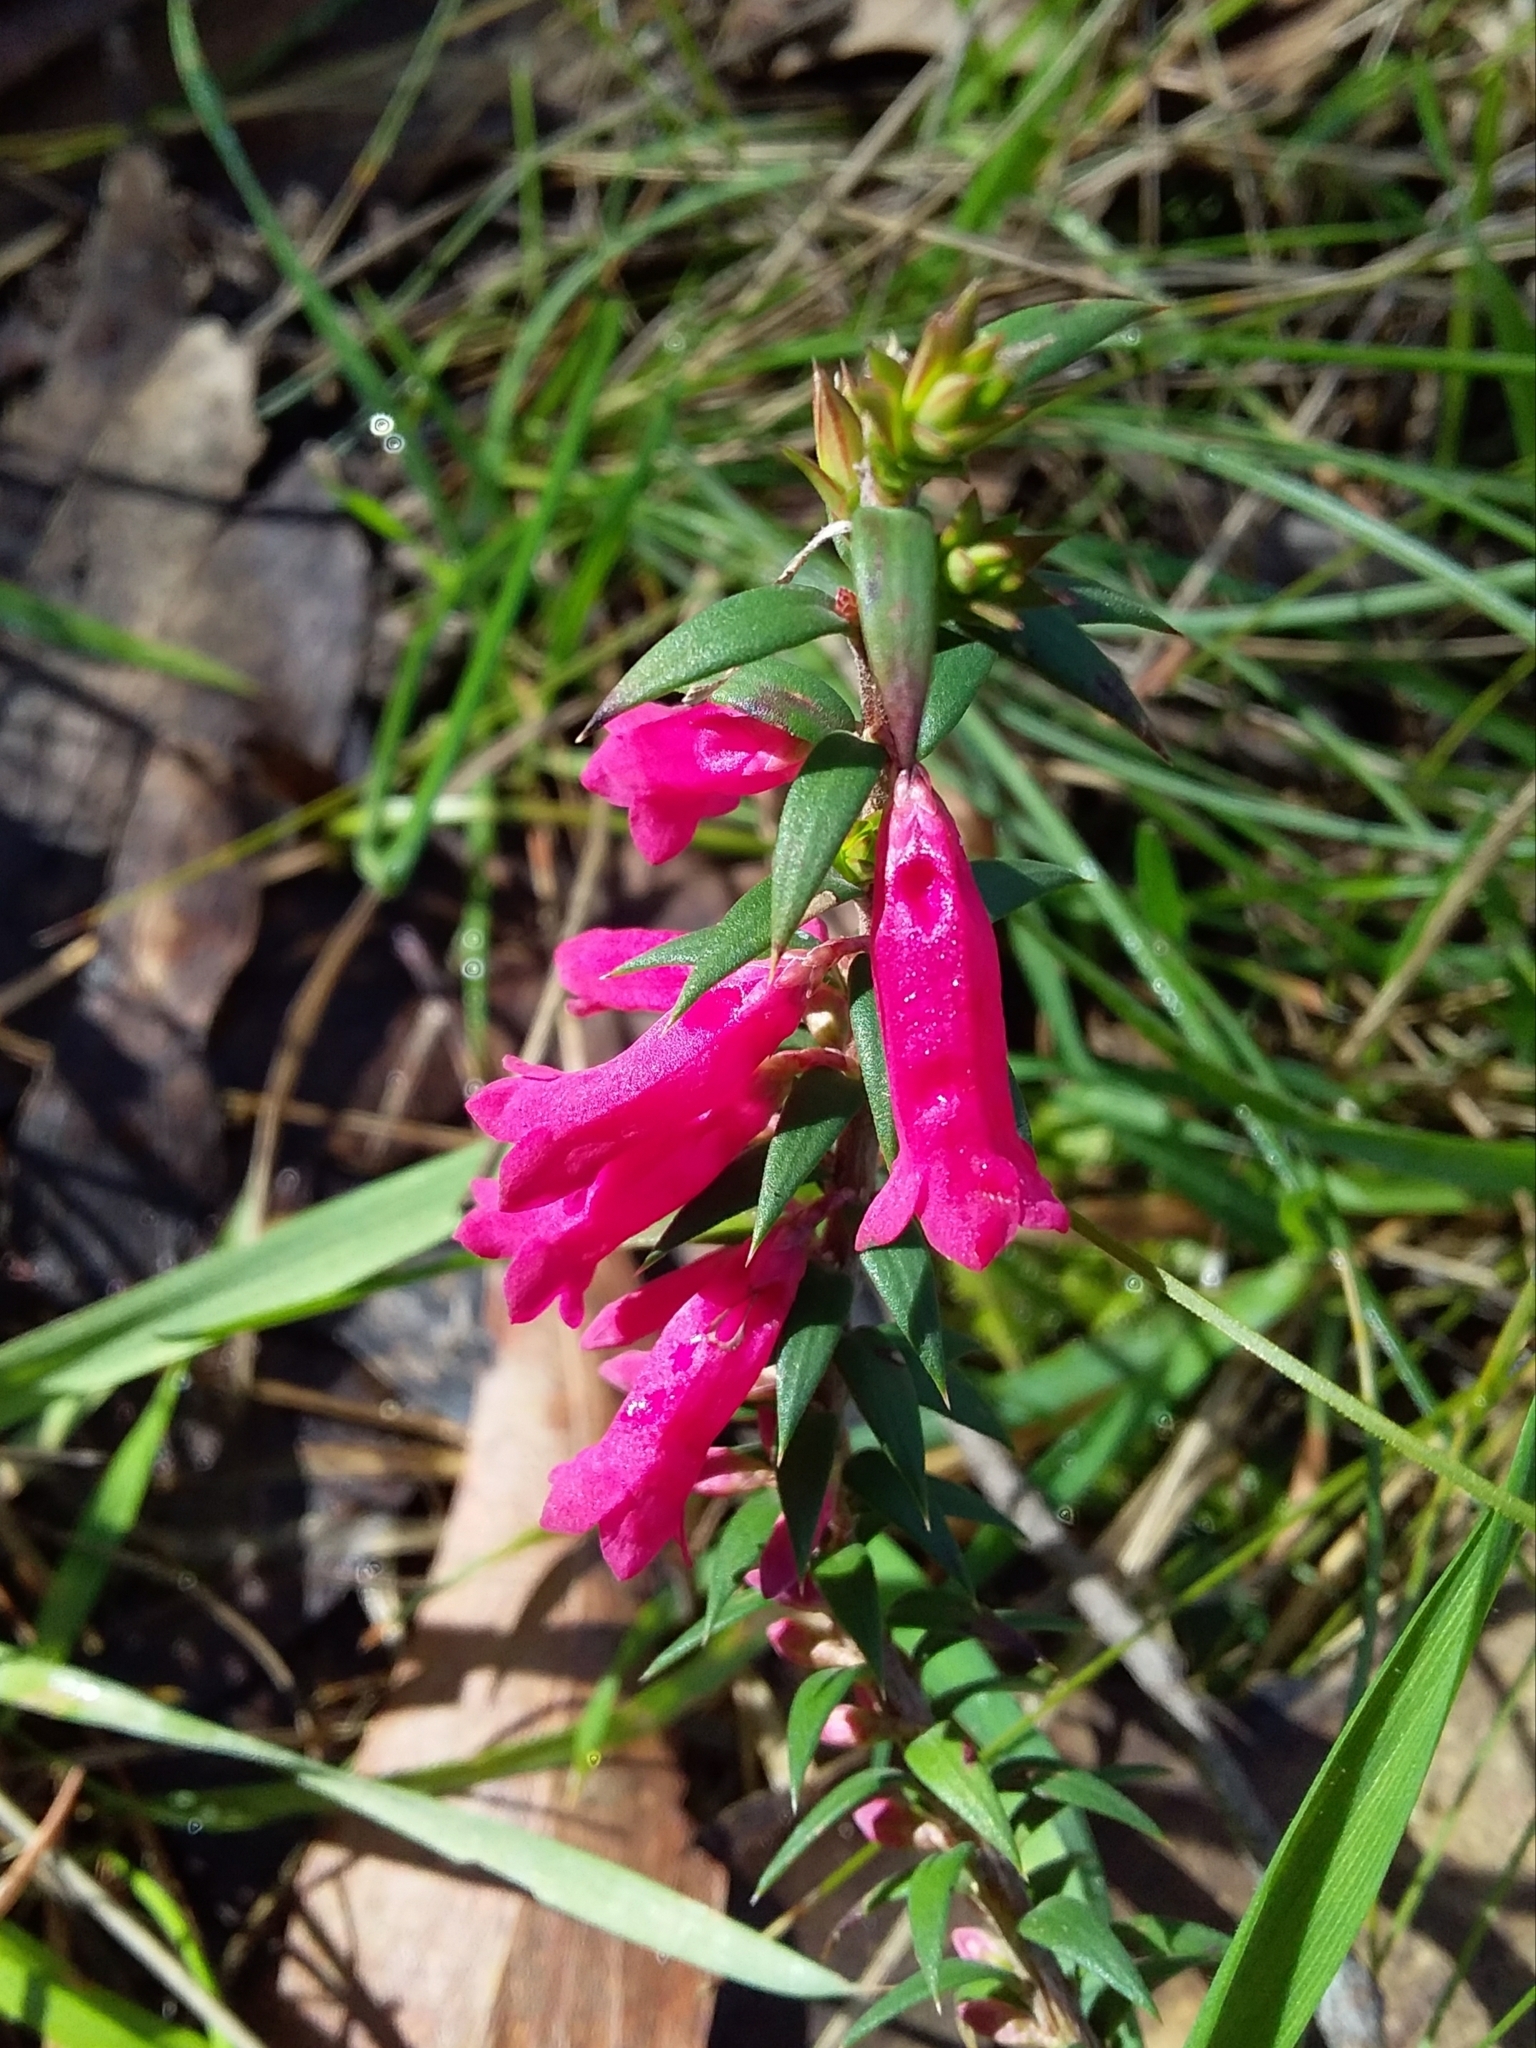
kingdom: Plantae
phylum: Tracheophyta
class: Magnoliopsida
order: Ericales
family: Ericaceae
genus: Epacris
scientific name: Epacris impressa
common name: Common-heath
